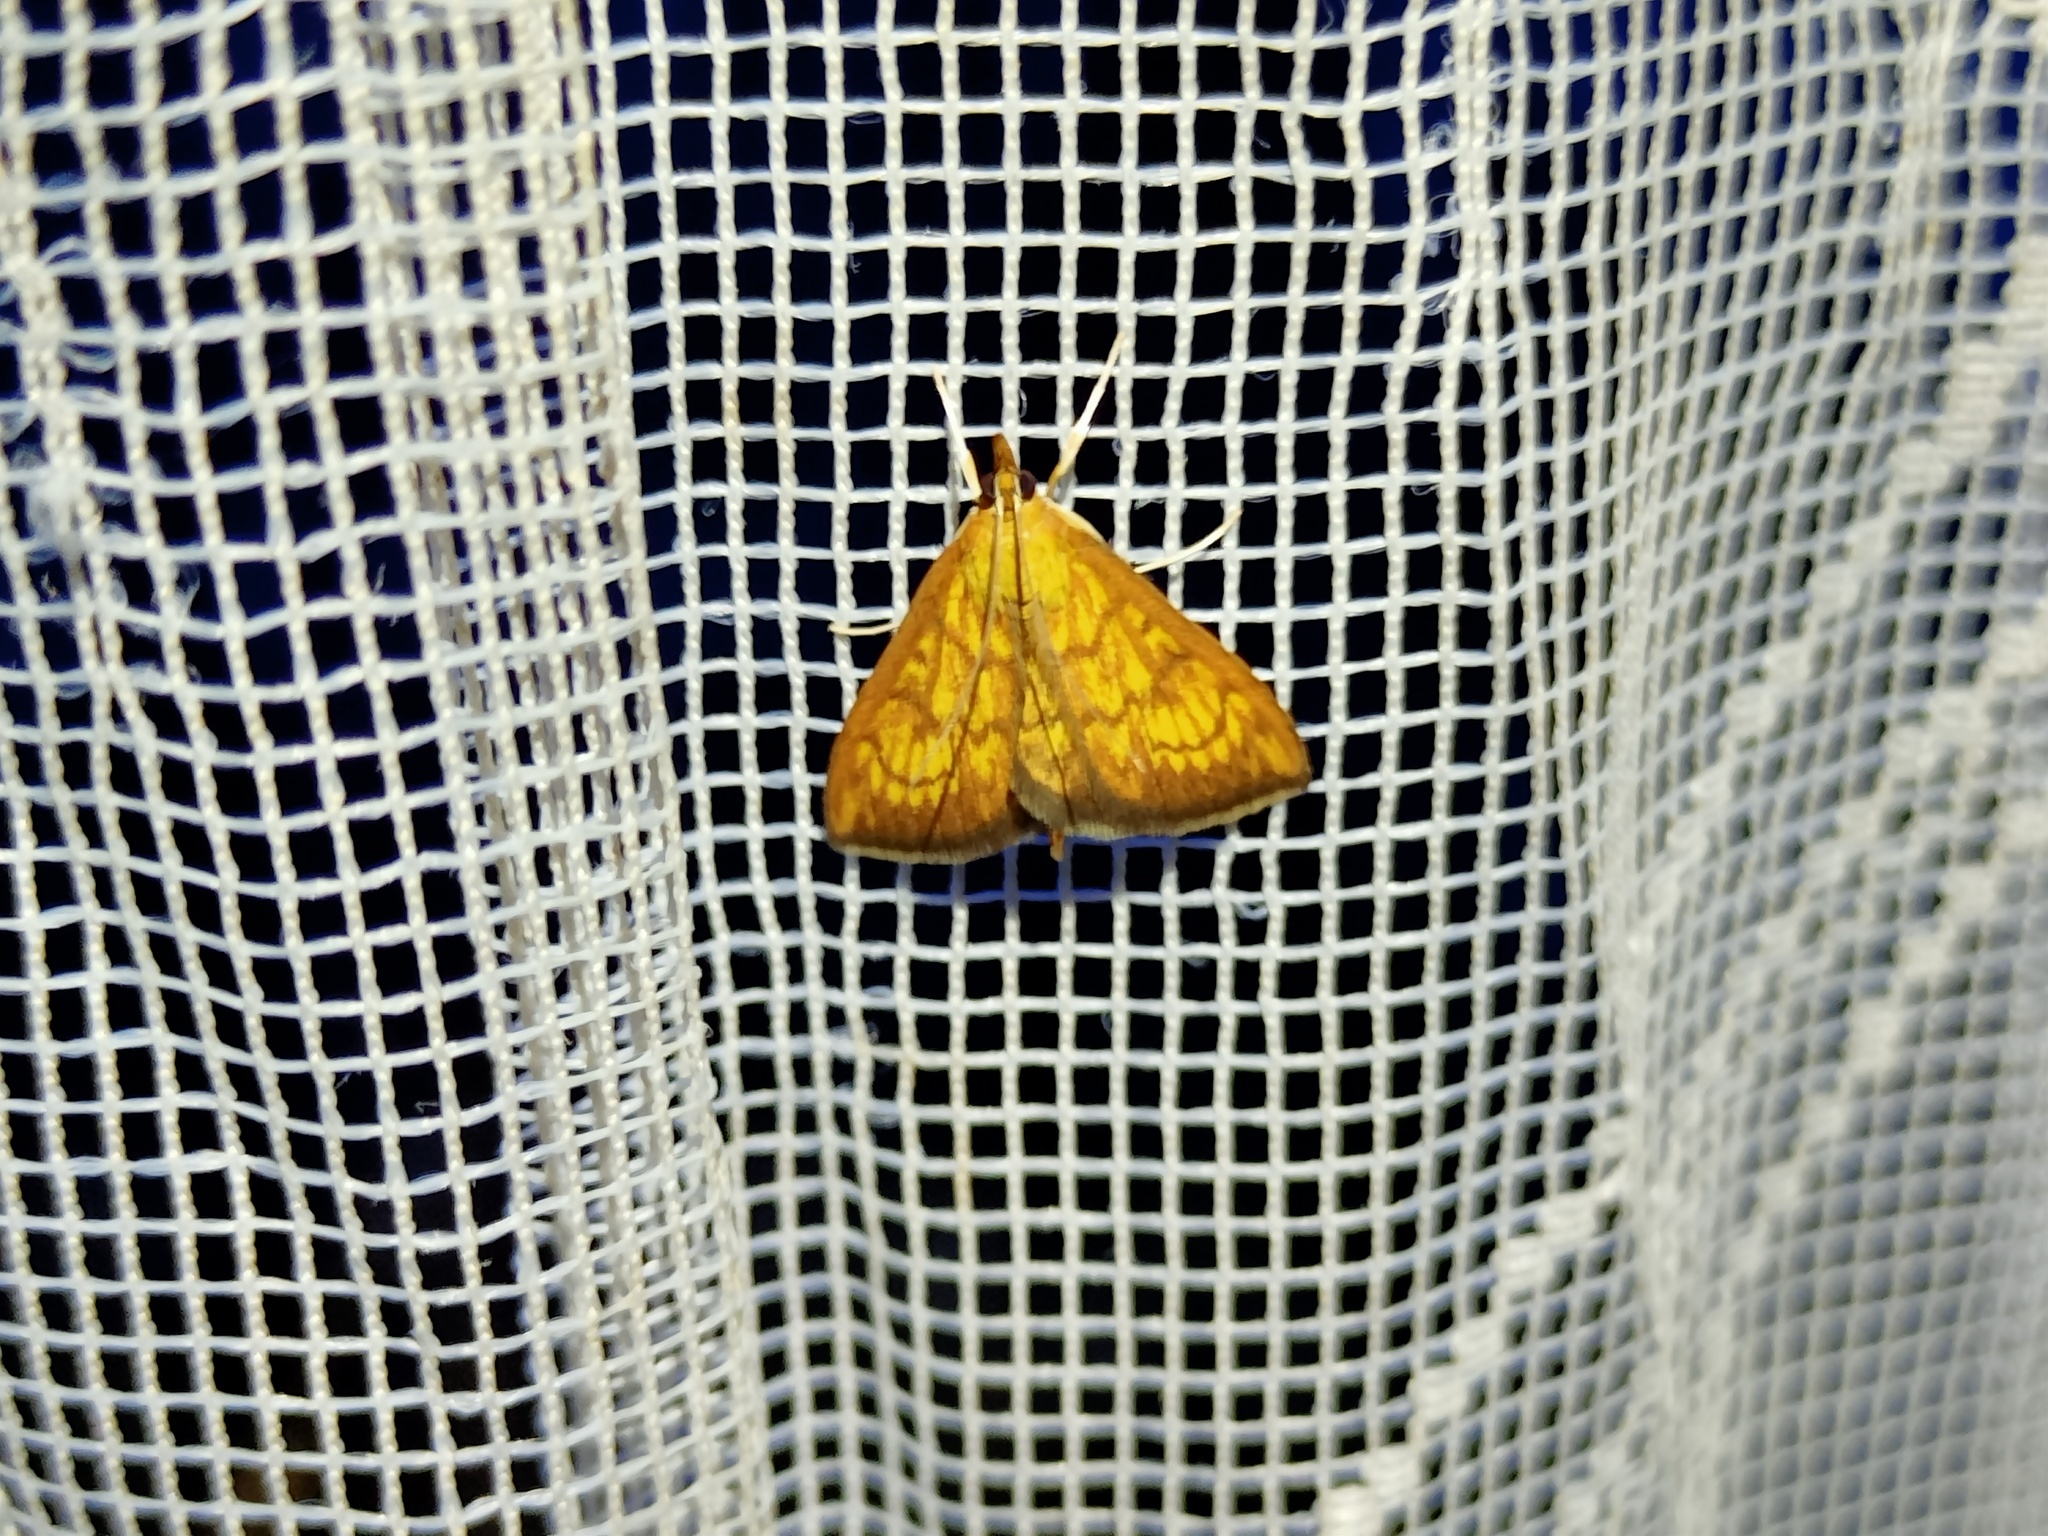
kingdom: Animalia
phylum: Arthropoda
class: Insecta
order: Lepidoptera
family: Crambidae
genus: Ecpyrrhorrhoe
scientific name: Ecpyrrhorrhoe rubiginalis
